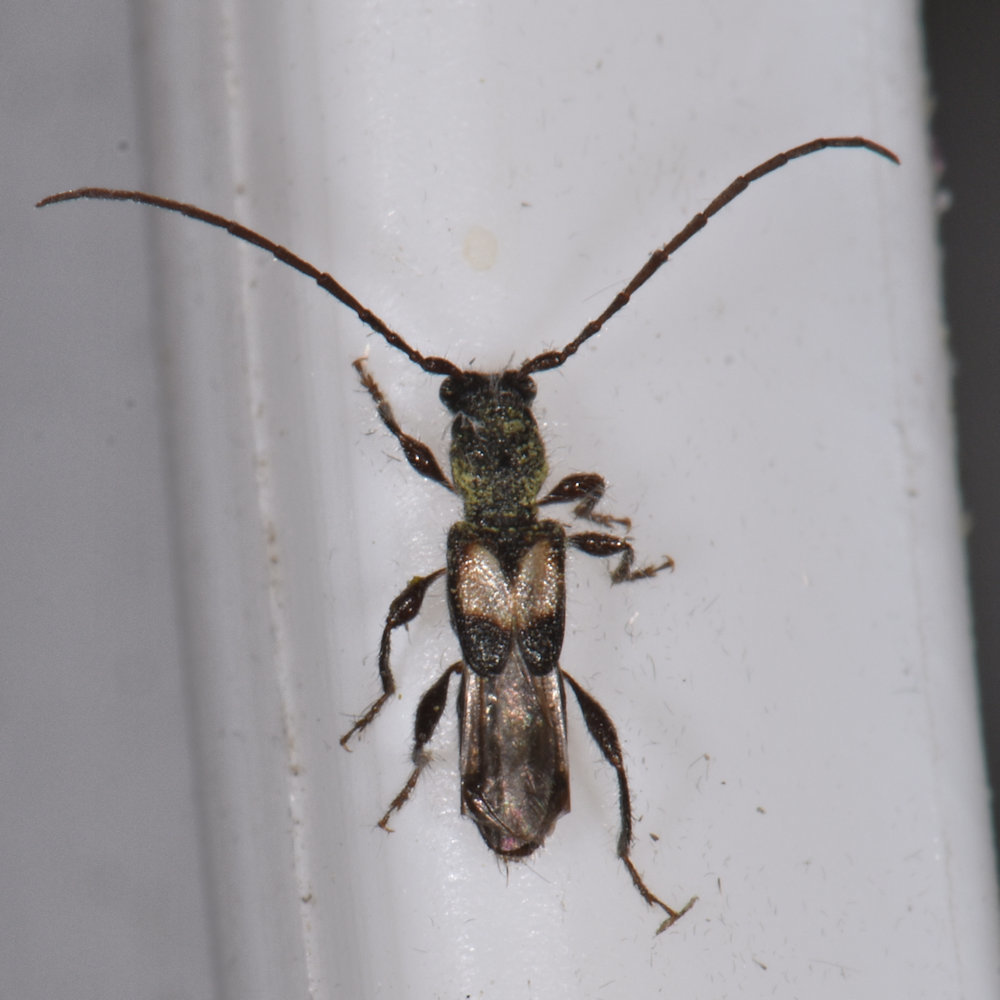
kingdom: Animalia
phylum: Arthropoda
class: Insecta
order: Coleoptera
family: Cerambycidae
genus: Molorchus
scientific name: Molorchus bimaculatus
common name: Bimaculate longhorn beetle
